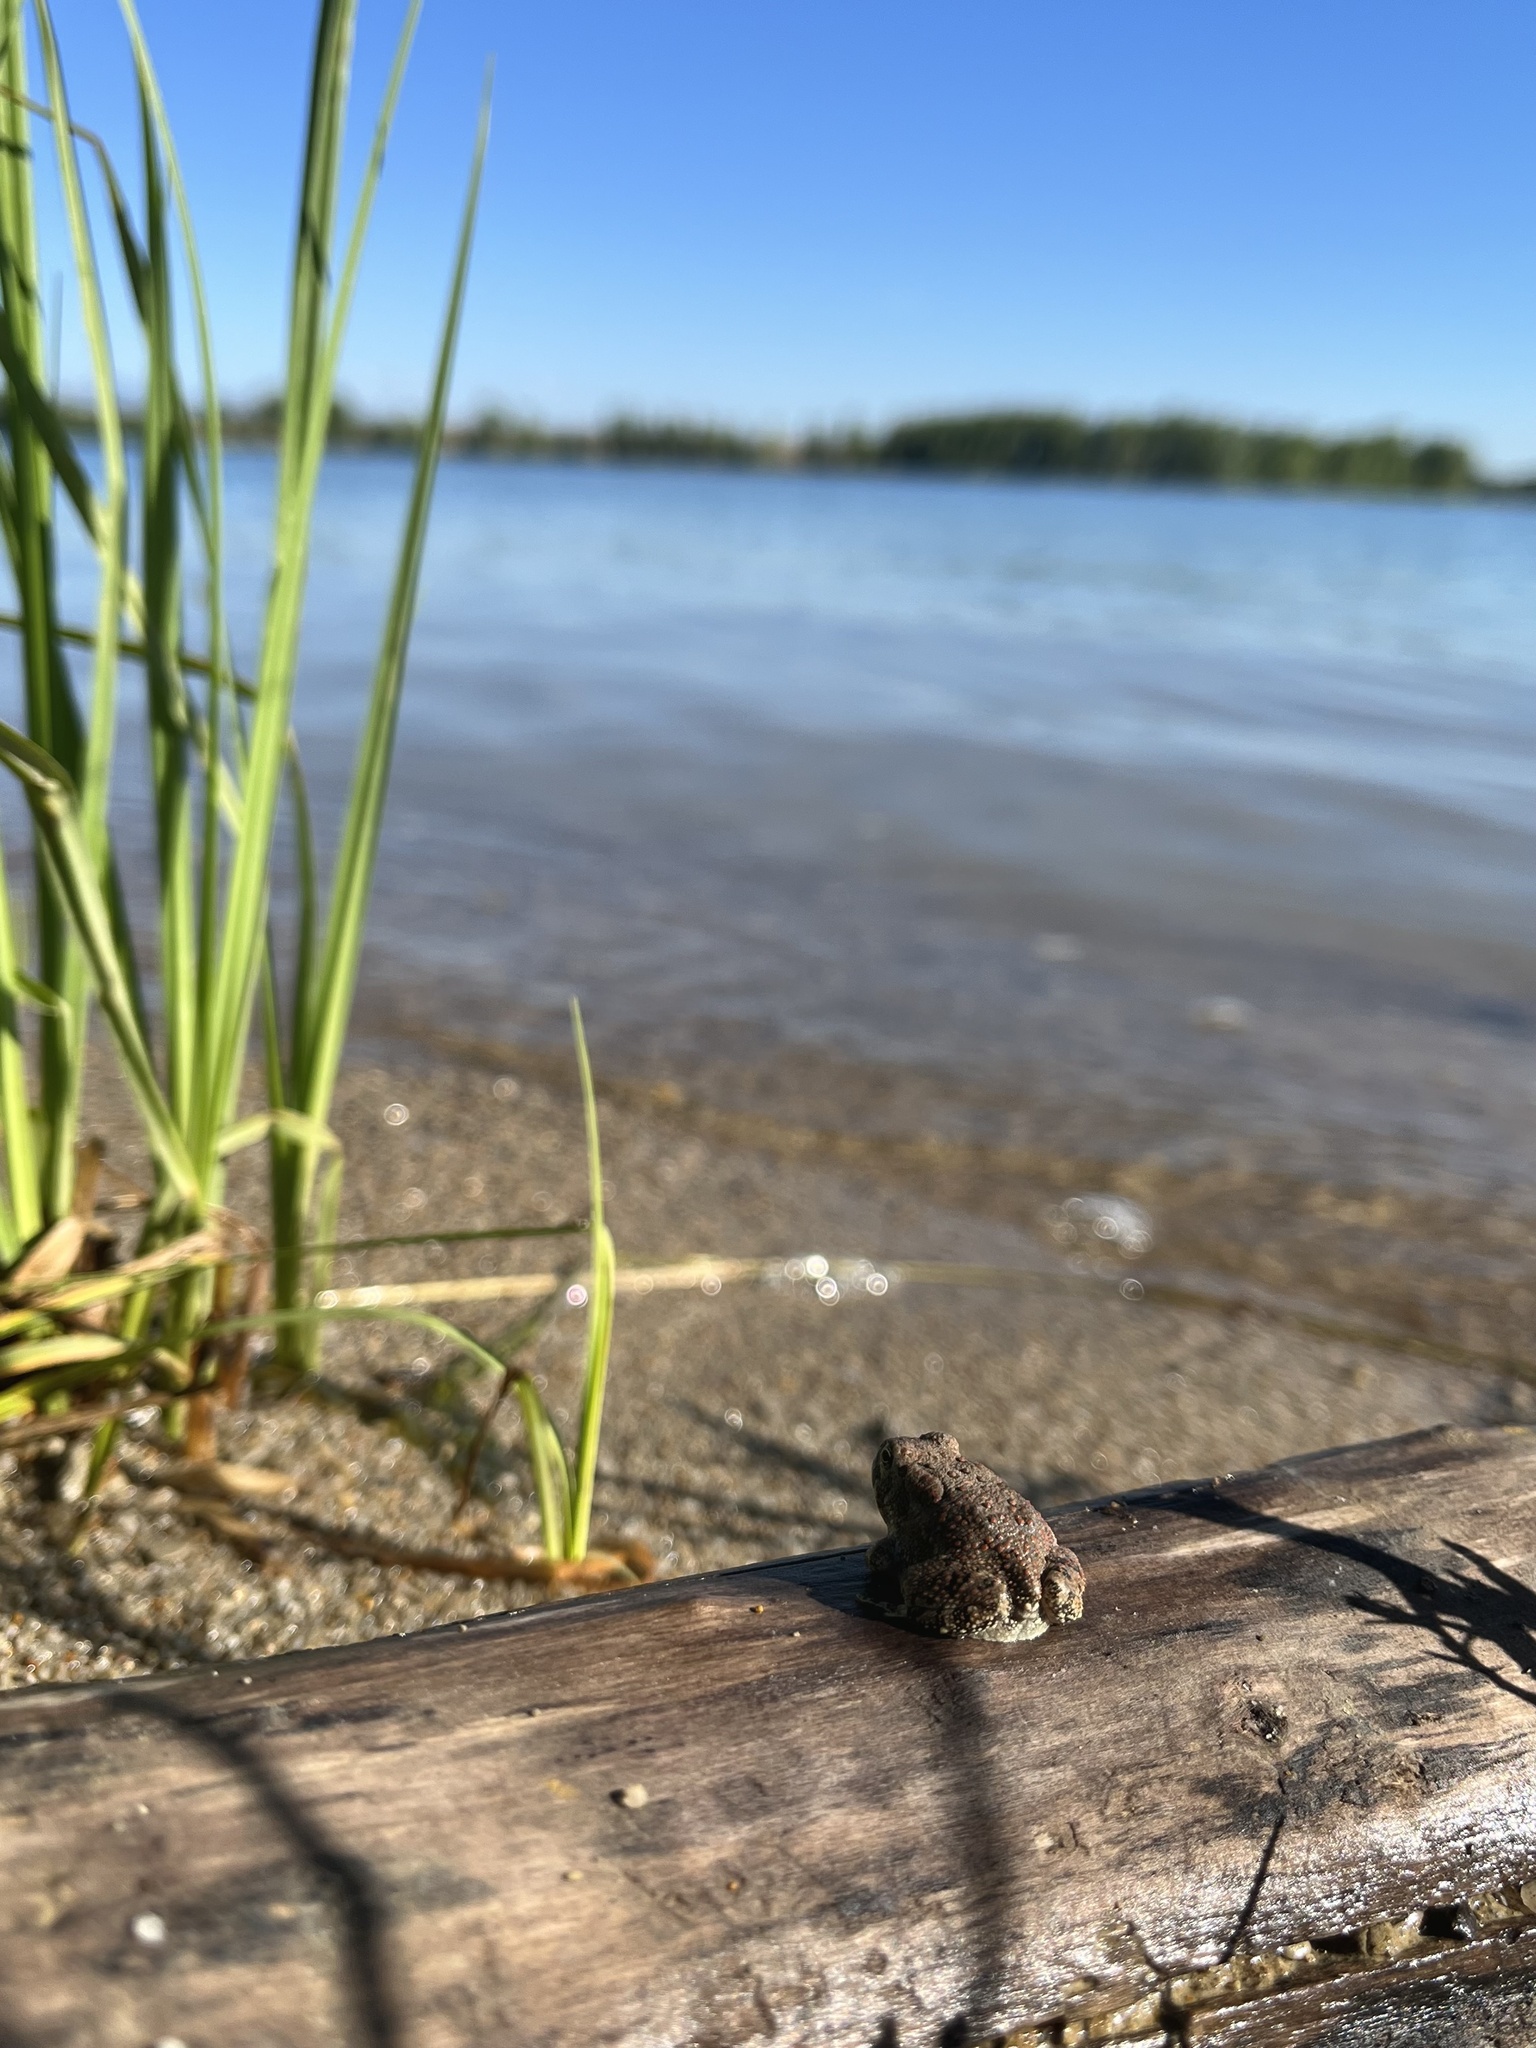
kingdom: Animalia
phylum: Chordata
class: Amphibia
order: Anura
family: Bufonidae
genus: Anaxyrus
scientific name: Anaxyrus woodhousii
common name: Woodhouse's toad
